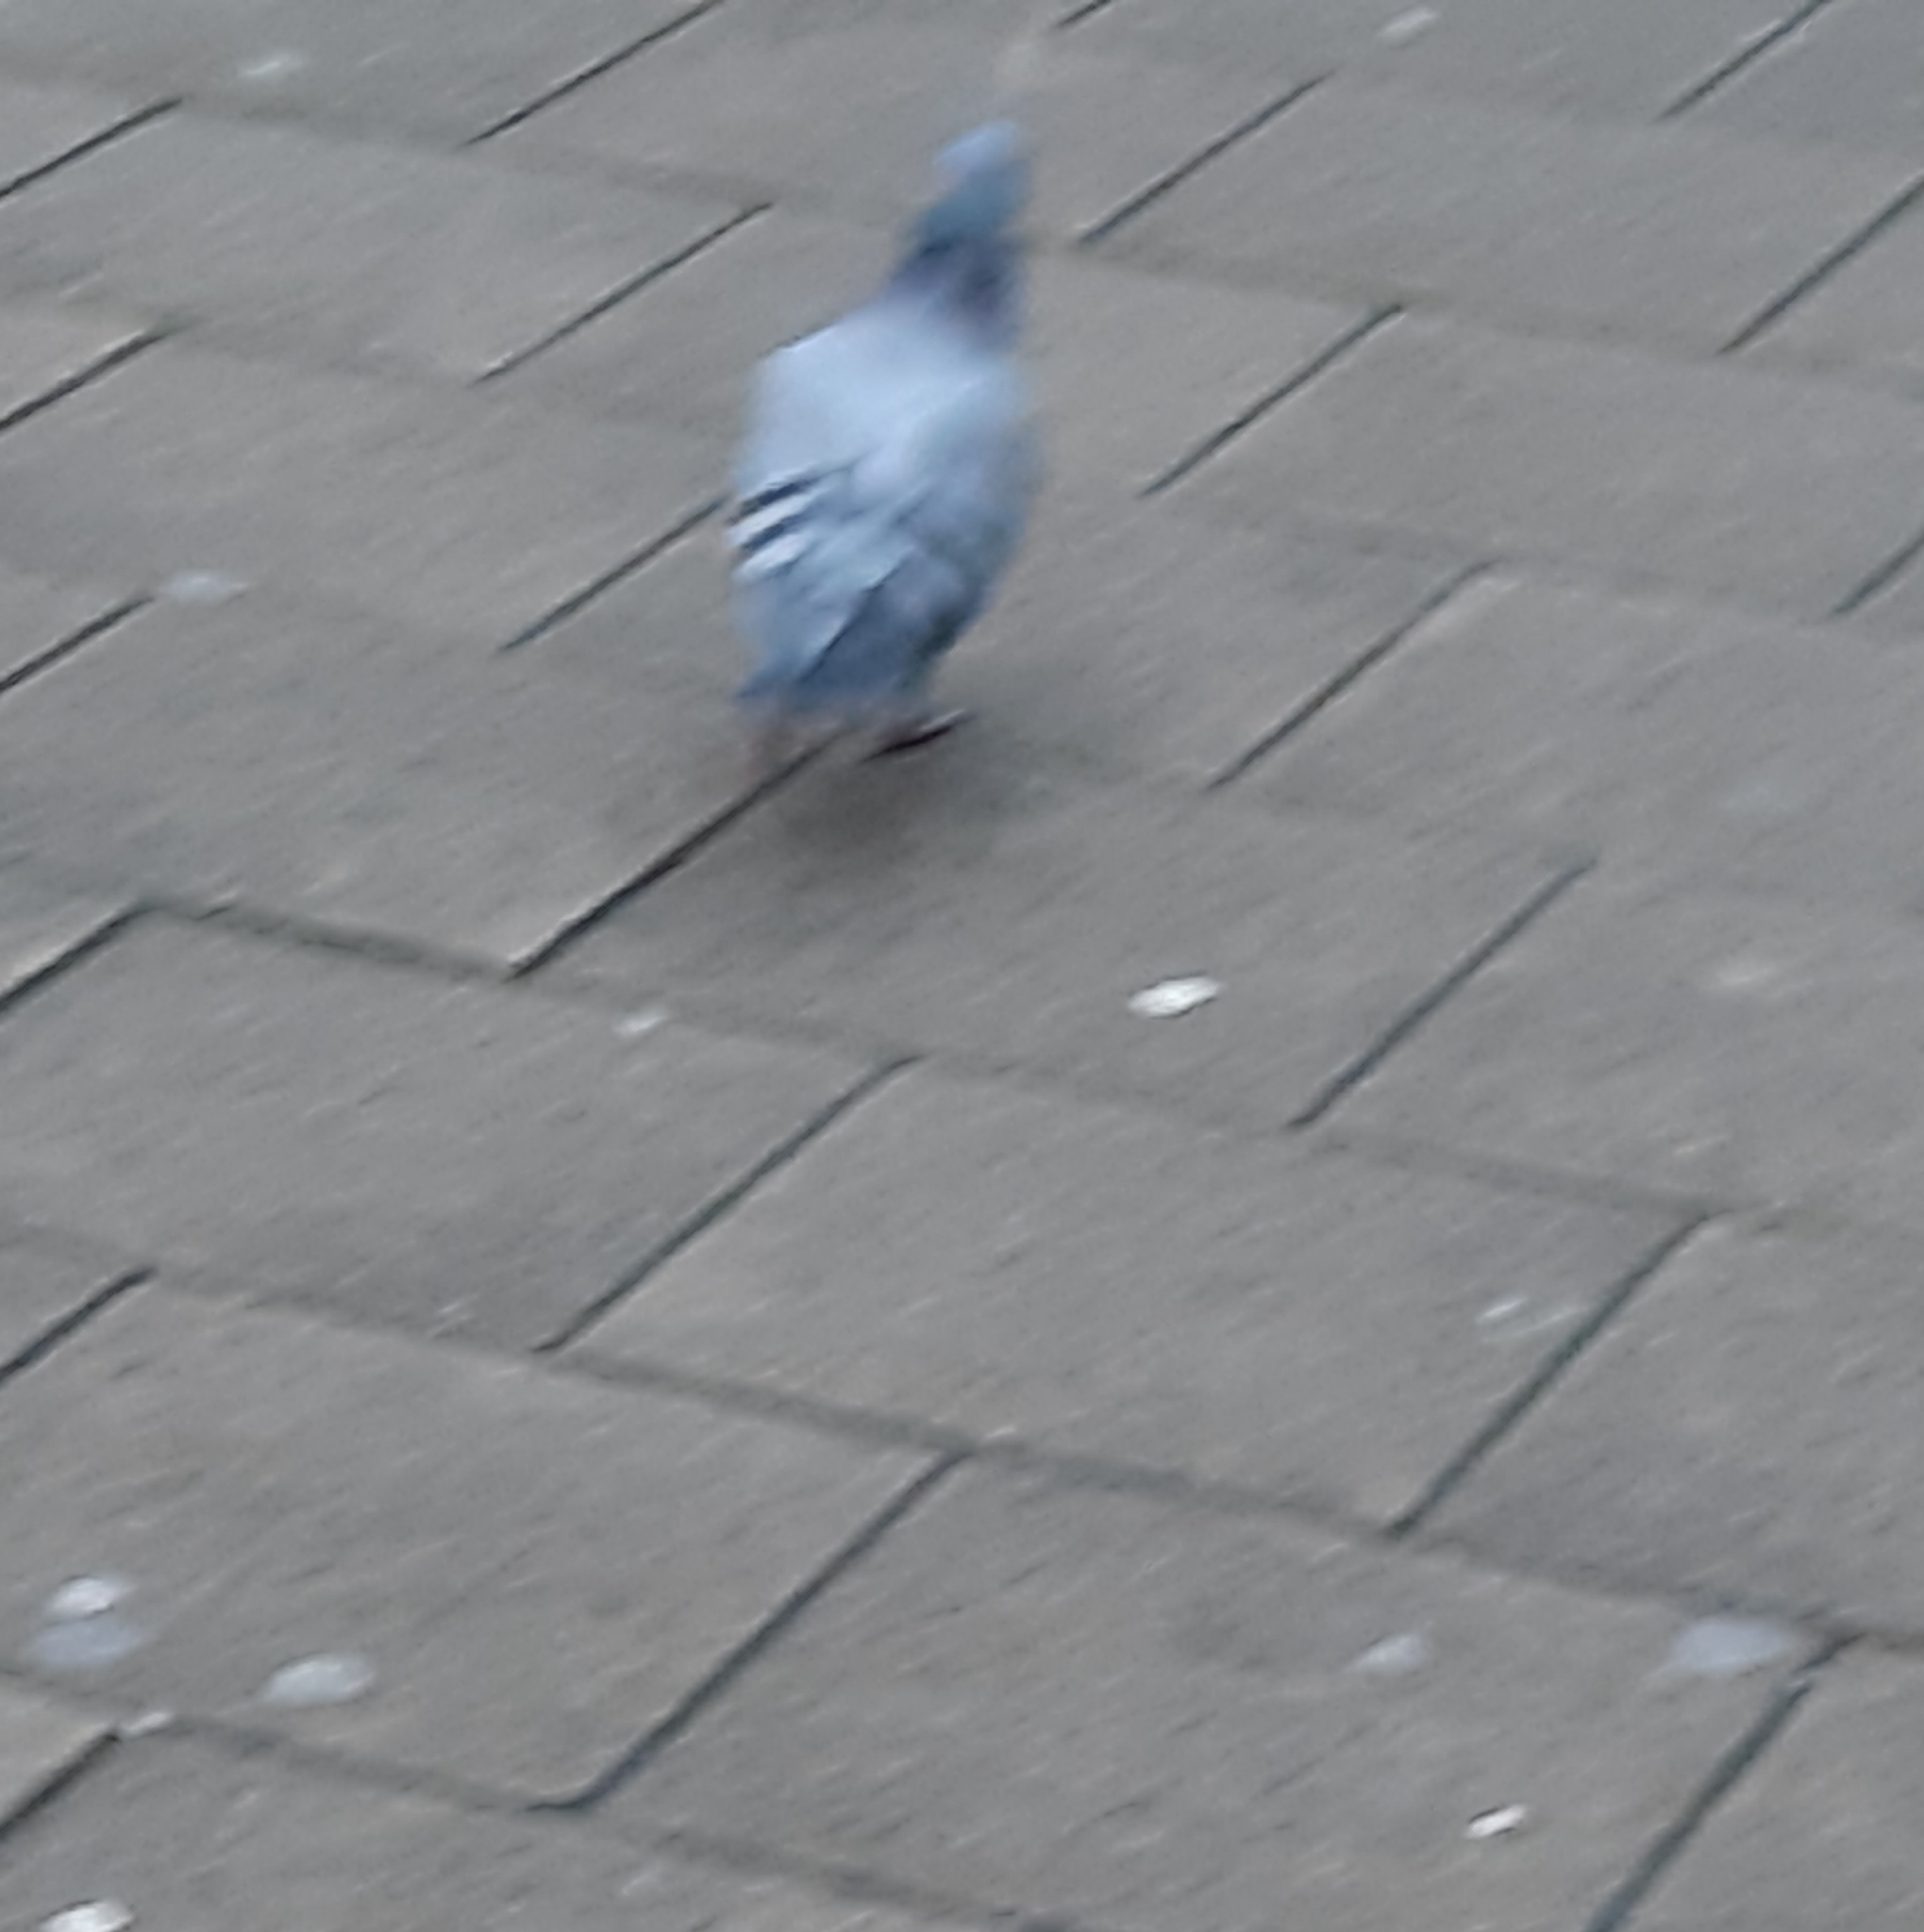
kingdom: Animalia
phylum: Chordata
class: Aves
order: Columbiformes
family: Columbidae
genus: Columba
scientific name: Columba livia
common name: Rock pigeon
